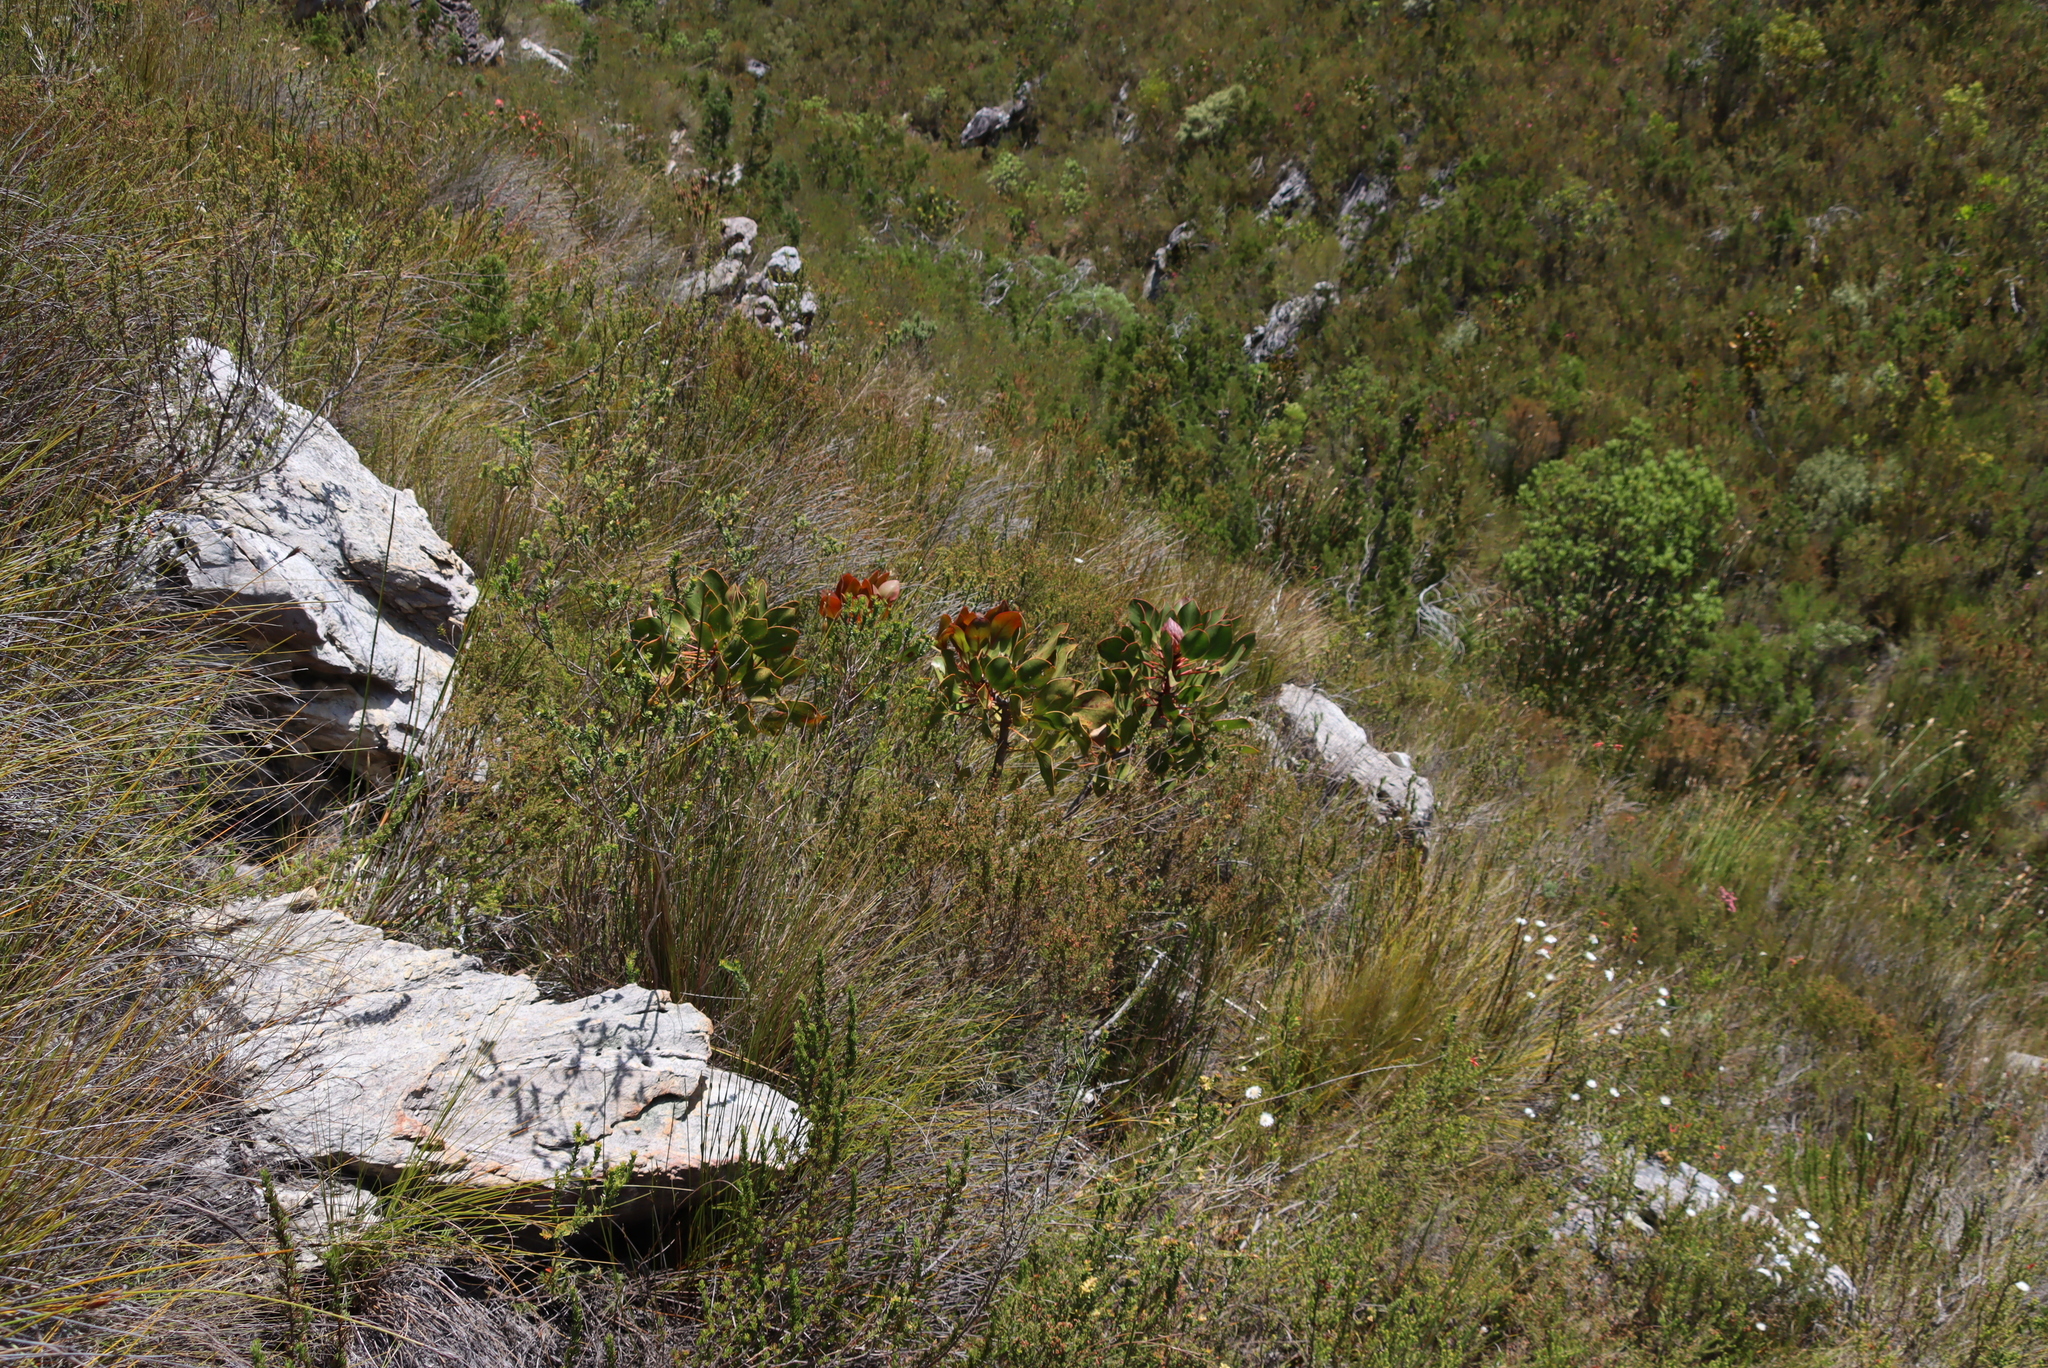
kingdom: Plantae
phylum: Tracheophyta
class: Magnoliopsida
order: Proteales
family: Proteaceae
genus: Protea
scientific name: Protea cynaroides
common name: King protea
